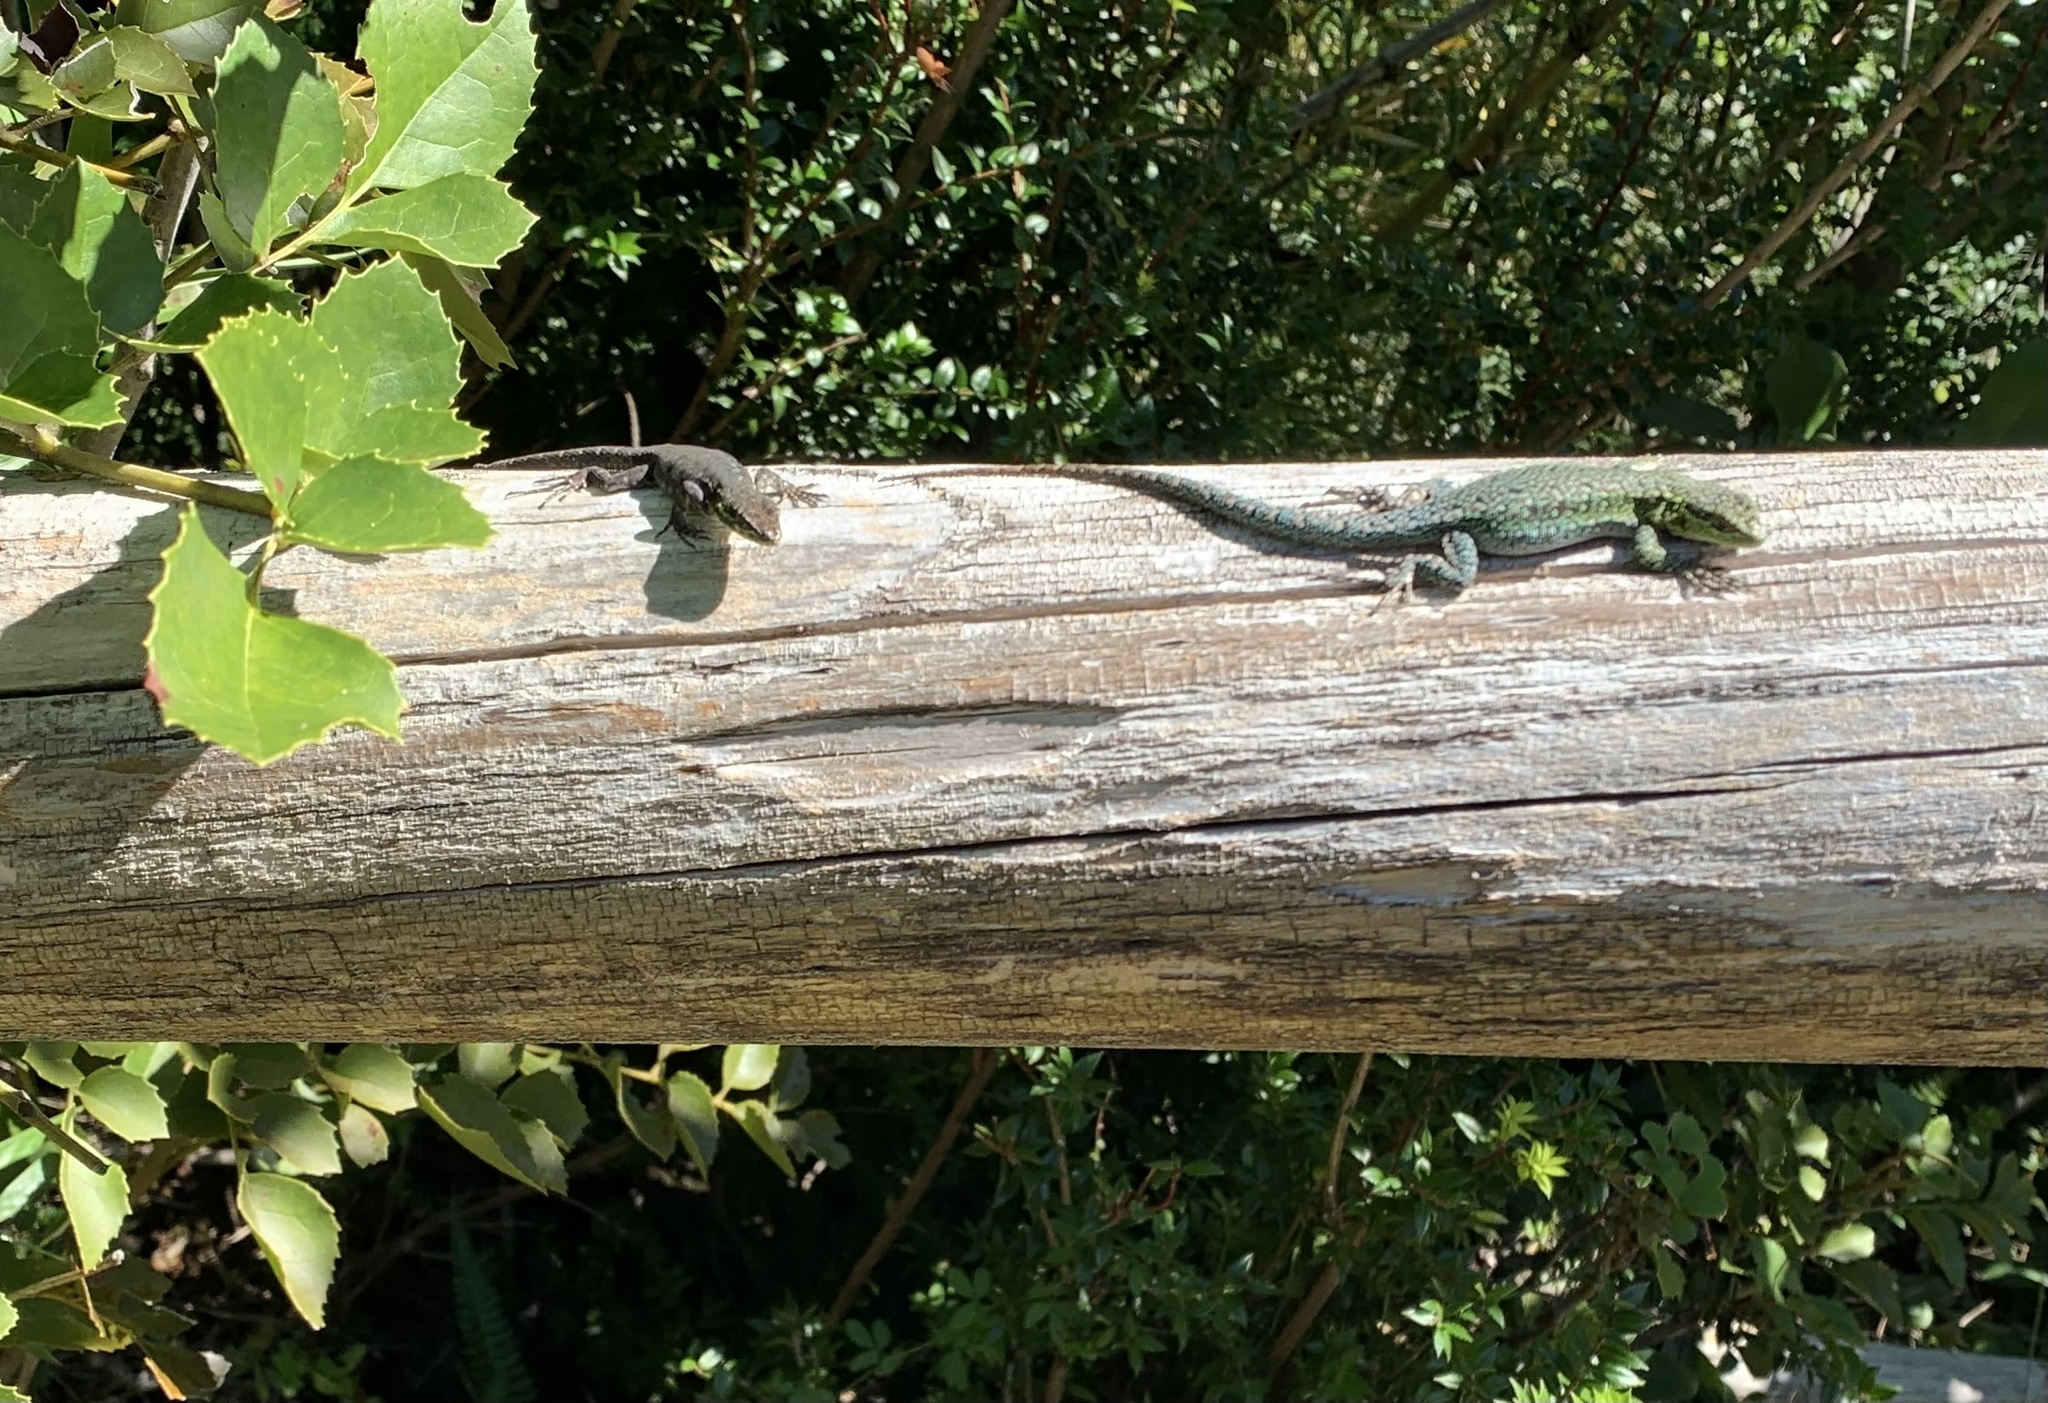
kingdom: Animalia
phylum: Chordata
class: Squamata
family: Liolaemidae
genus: Liolaemus
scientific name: Liolaemus tenuis
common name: Thin tree iguana
